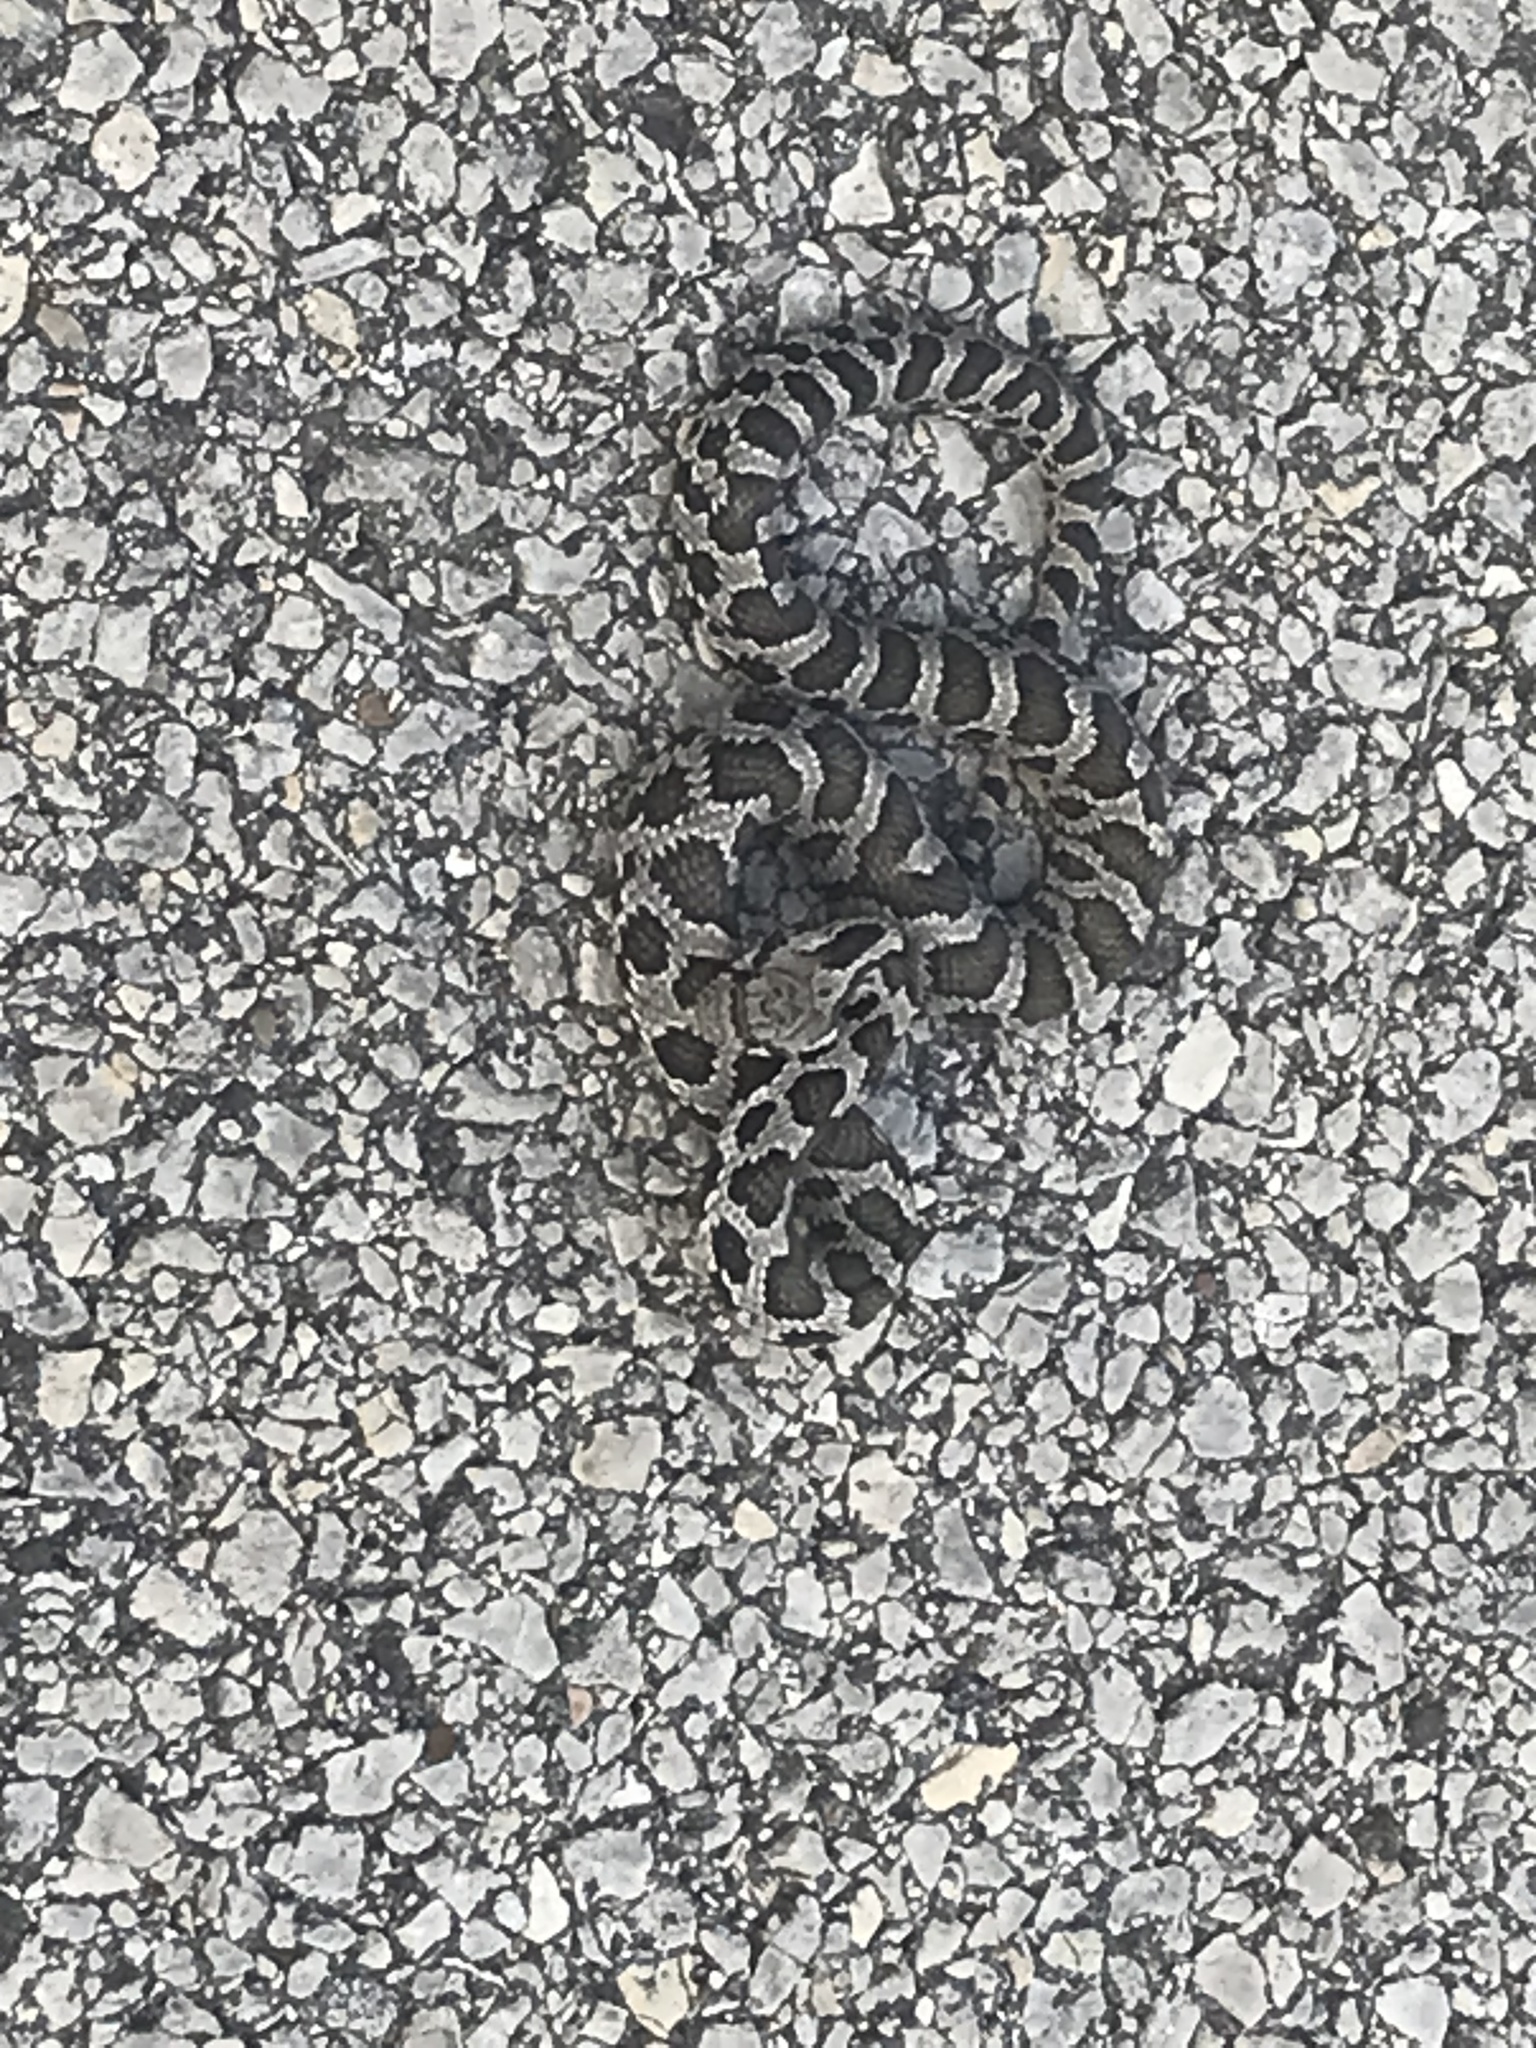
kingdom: Animalia
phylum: Chordata
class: Squamata
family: Colubridae
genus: Pantherophis
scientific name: Pantherophis vulpinus
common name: Eastern fox snake
